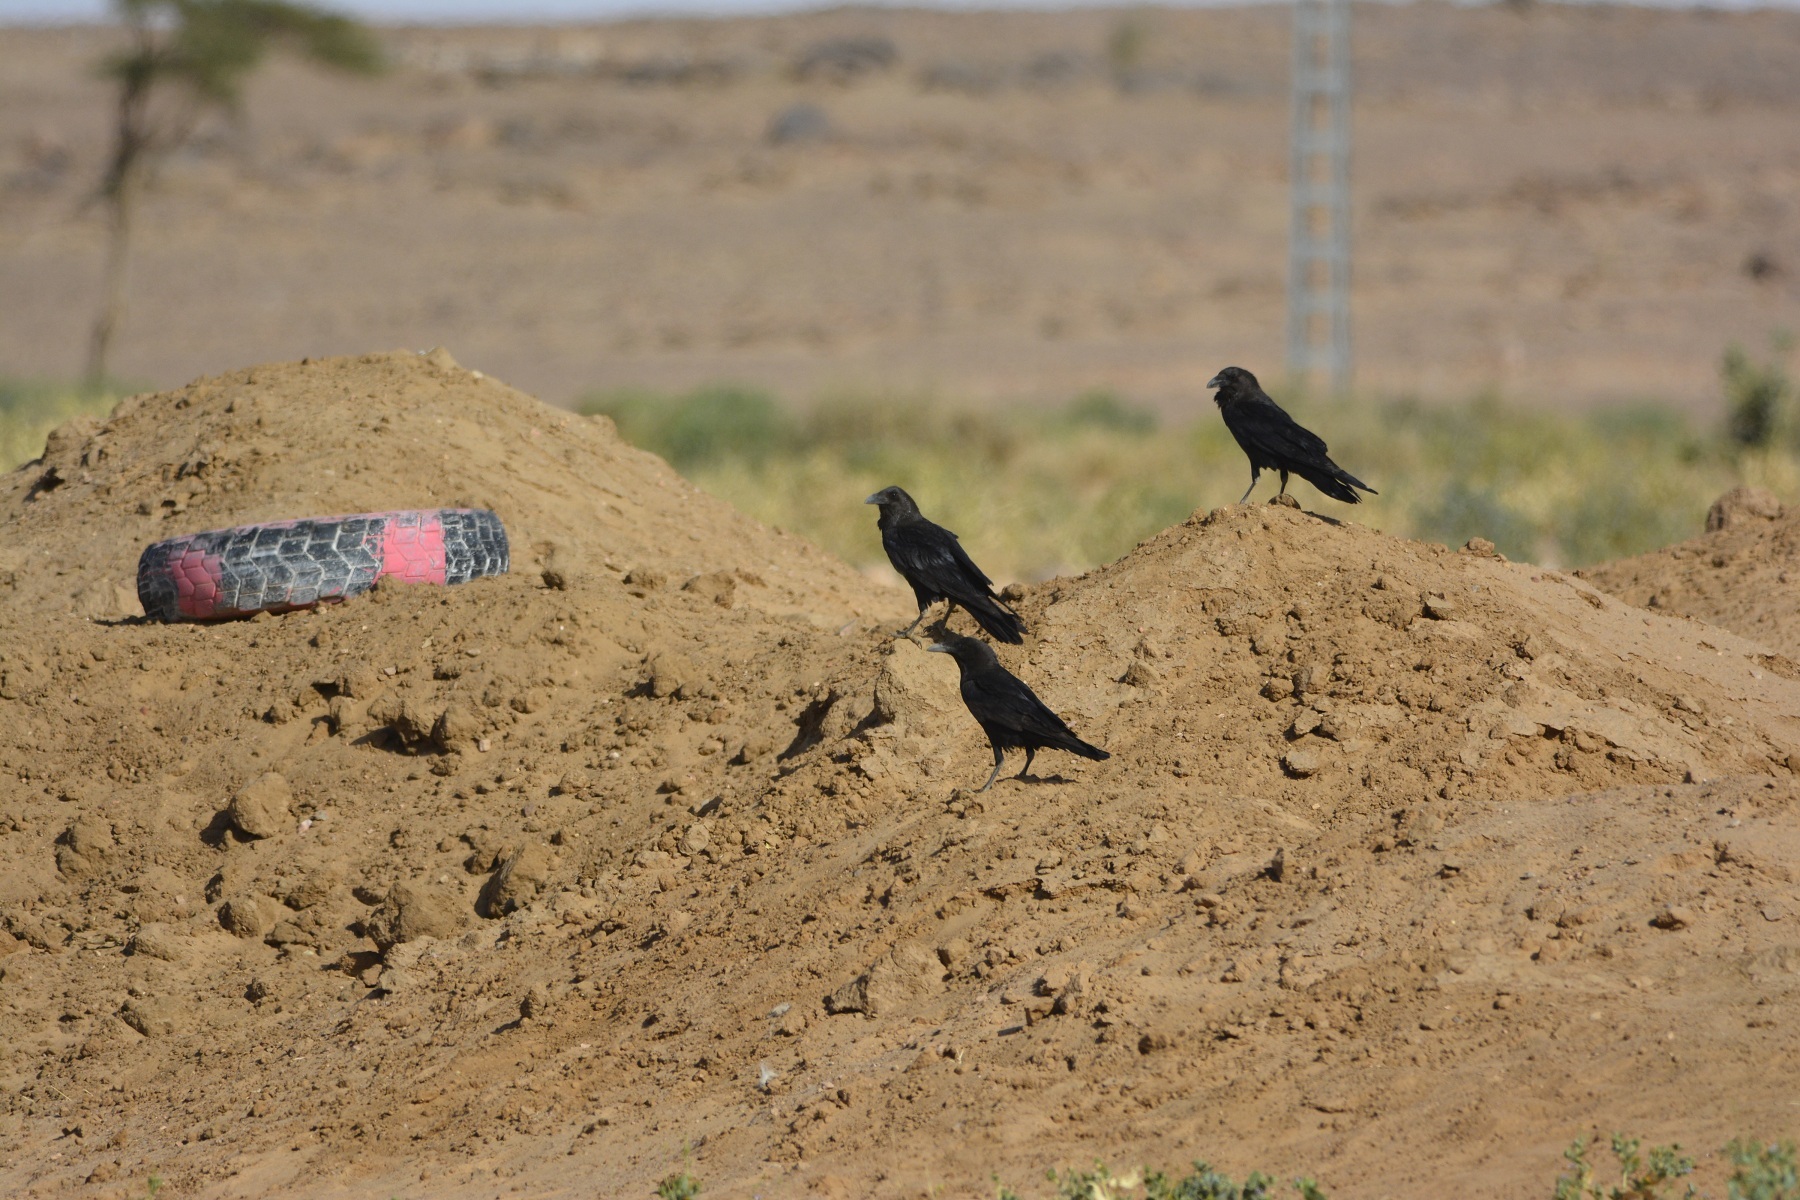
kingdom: Animalia
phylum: Chordata
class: Aves
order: Passeriformes
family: Corvidae
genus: Corvus
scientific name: Corvus ruficollis
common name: Brown-necked raven
